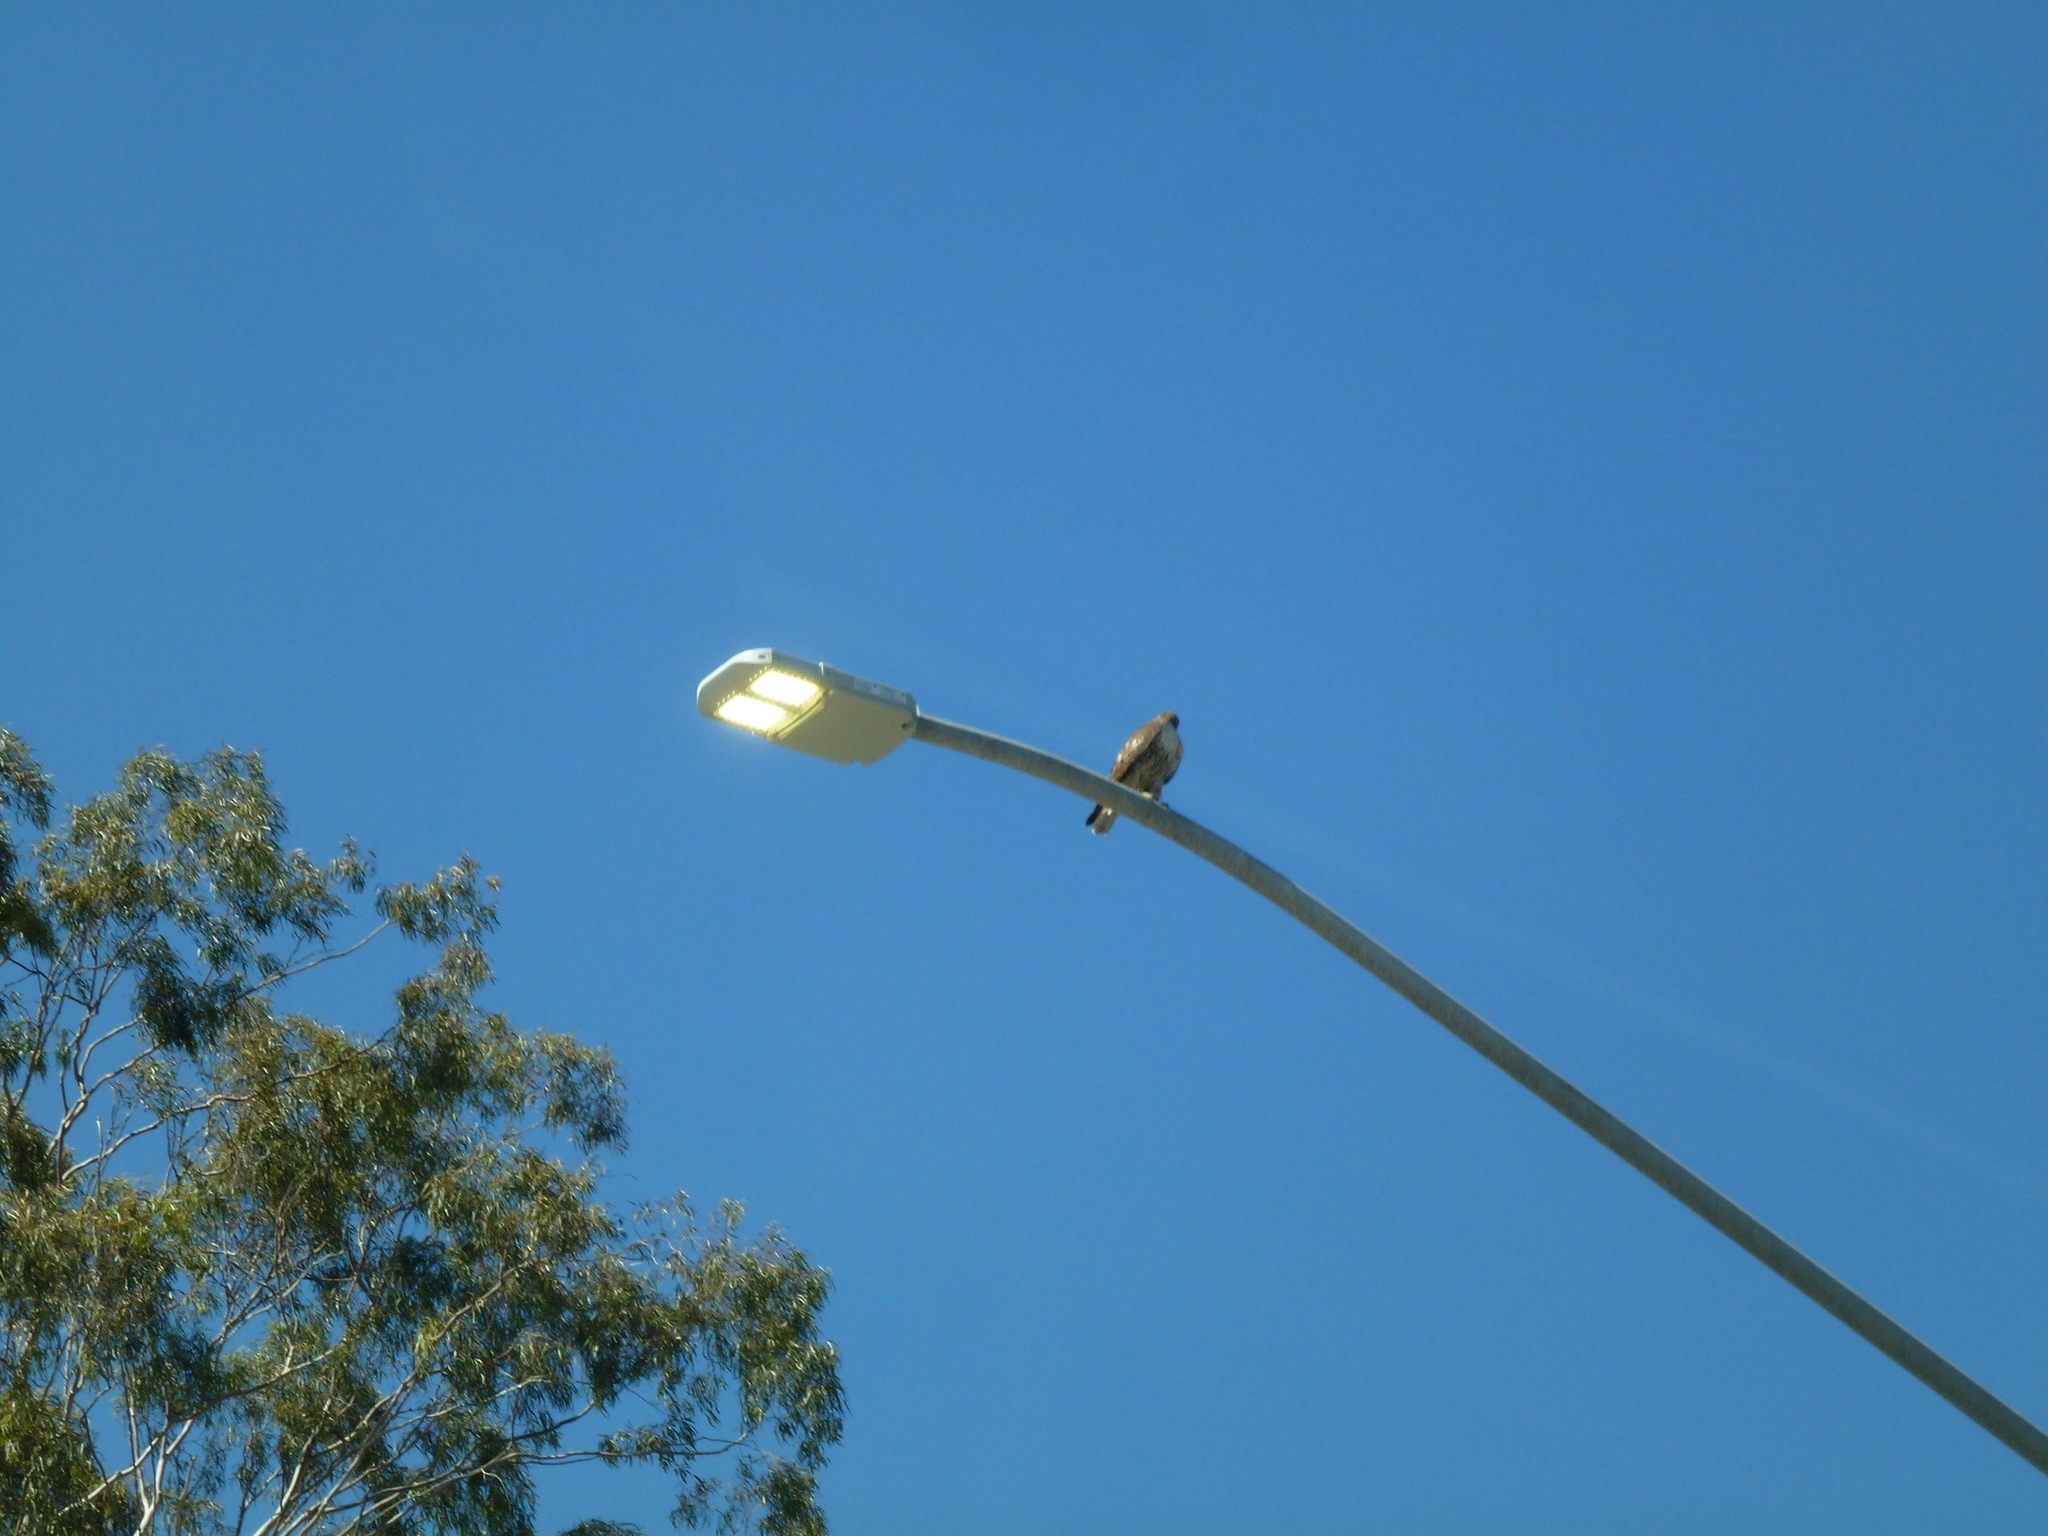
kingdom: Animalia
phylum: Chordata
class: Aves
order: Accipitriformes
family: Accipitridae
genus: Buteo
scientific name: Buteo jamaicensis
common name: Red-tailed hawk
